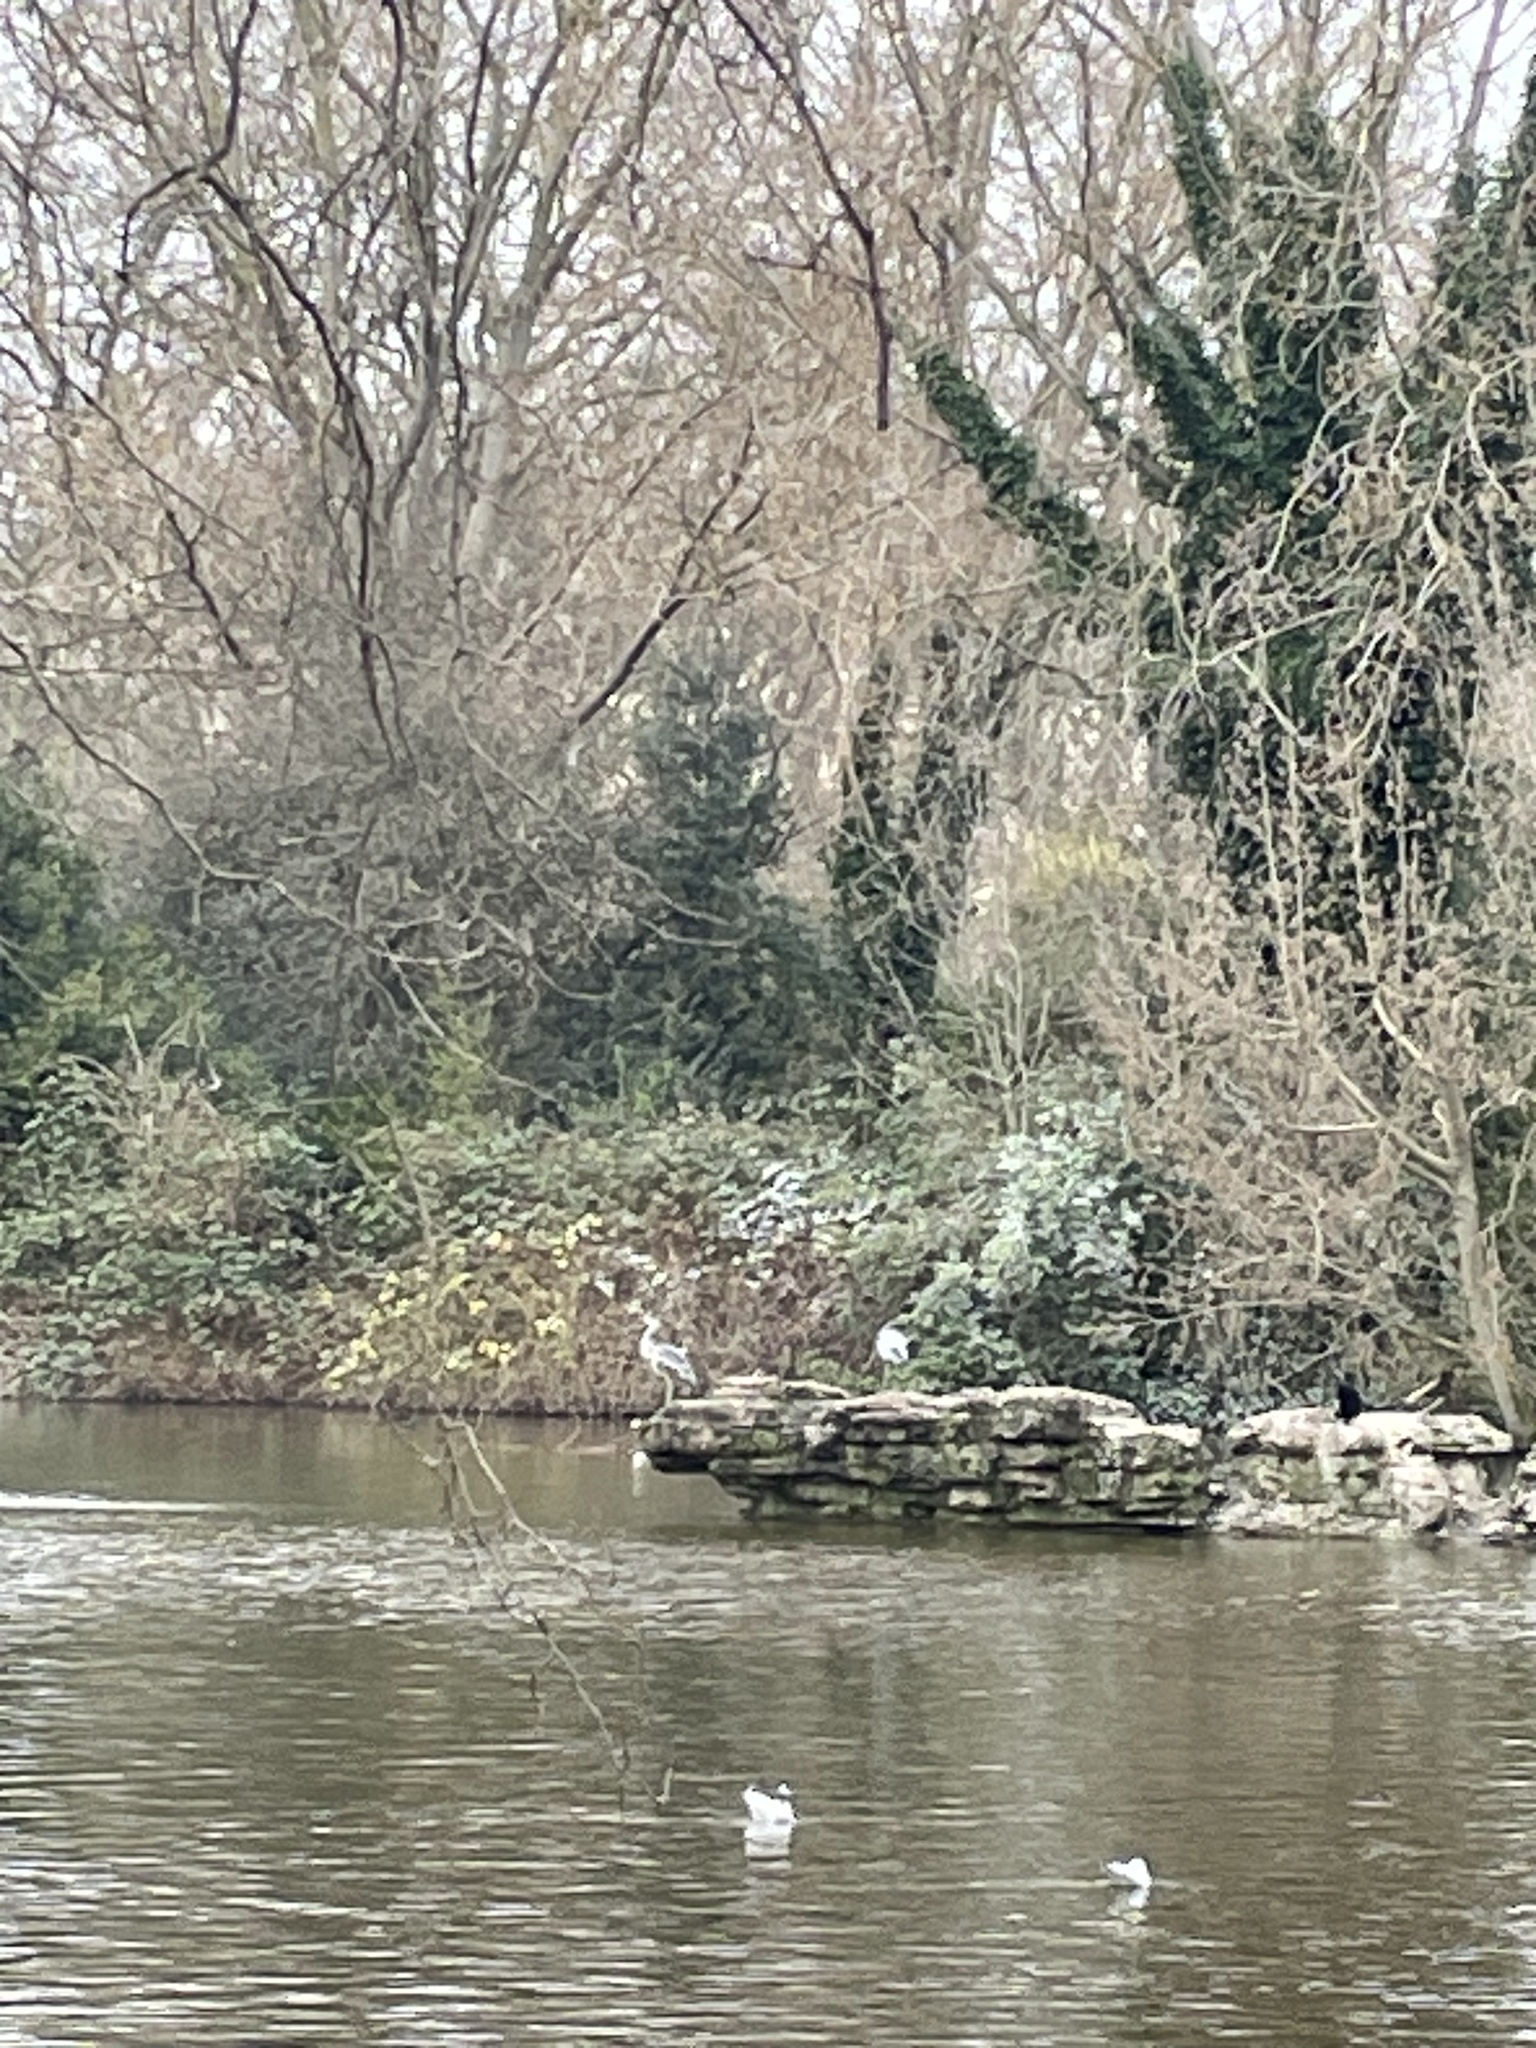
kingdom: Animalia
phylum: Chordata
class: Aves
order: Pelecaniformes
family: Ardeidae
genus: Ardea
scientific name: Ardea cinerea
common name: Grey heron
